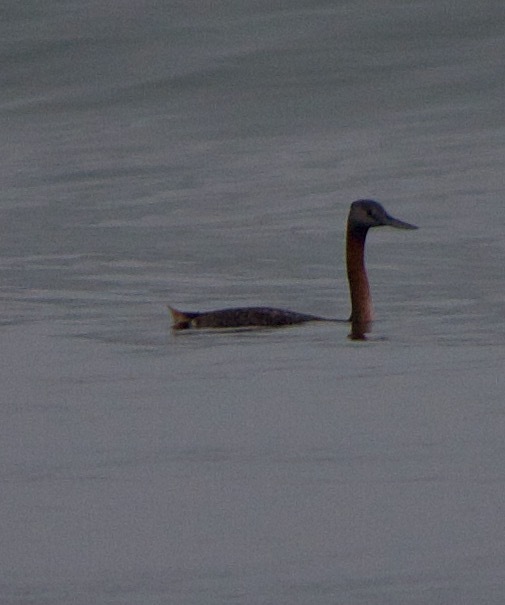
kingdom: Animalia
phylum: Chordata
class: Aves
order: Podicipediformes
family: Podicipedidae
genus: Podiceps
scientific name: Podiceps major
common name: Great grebe
